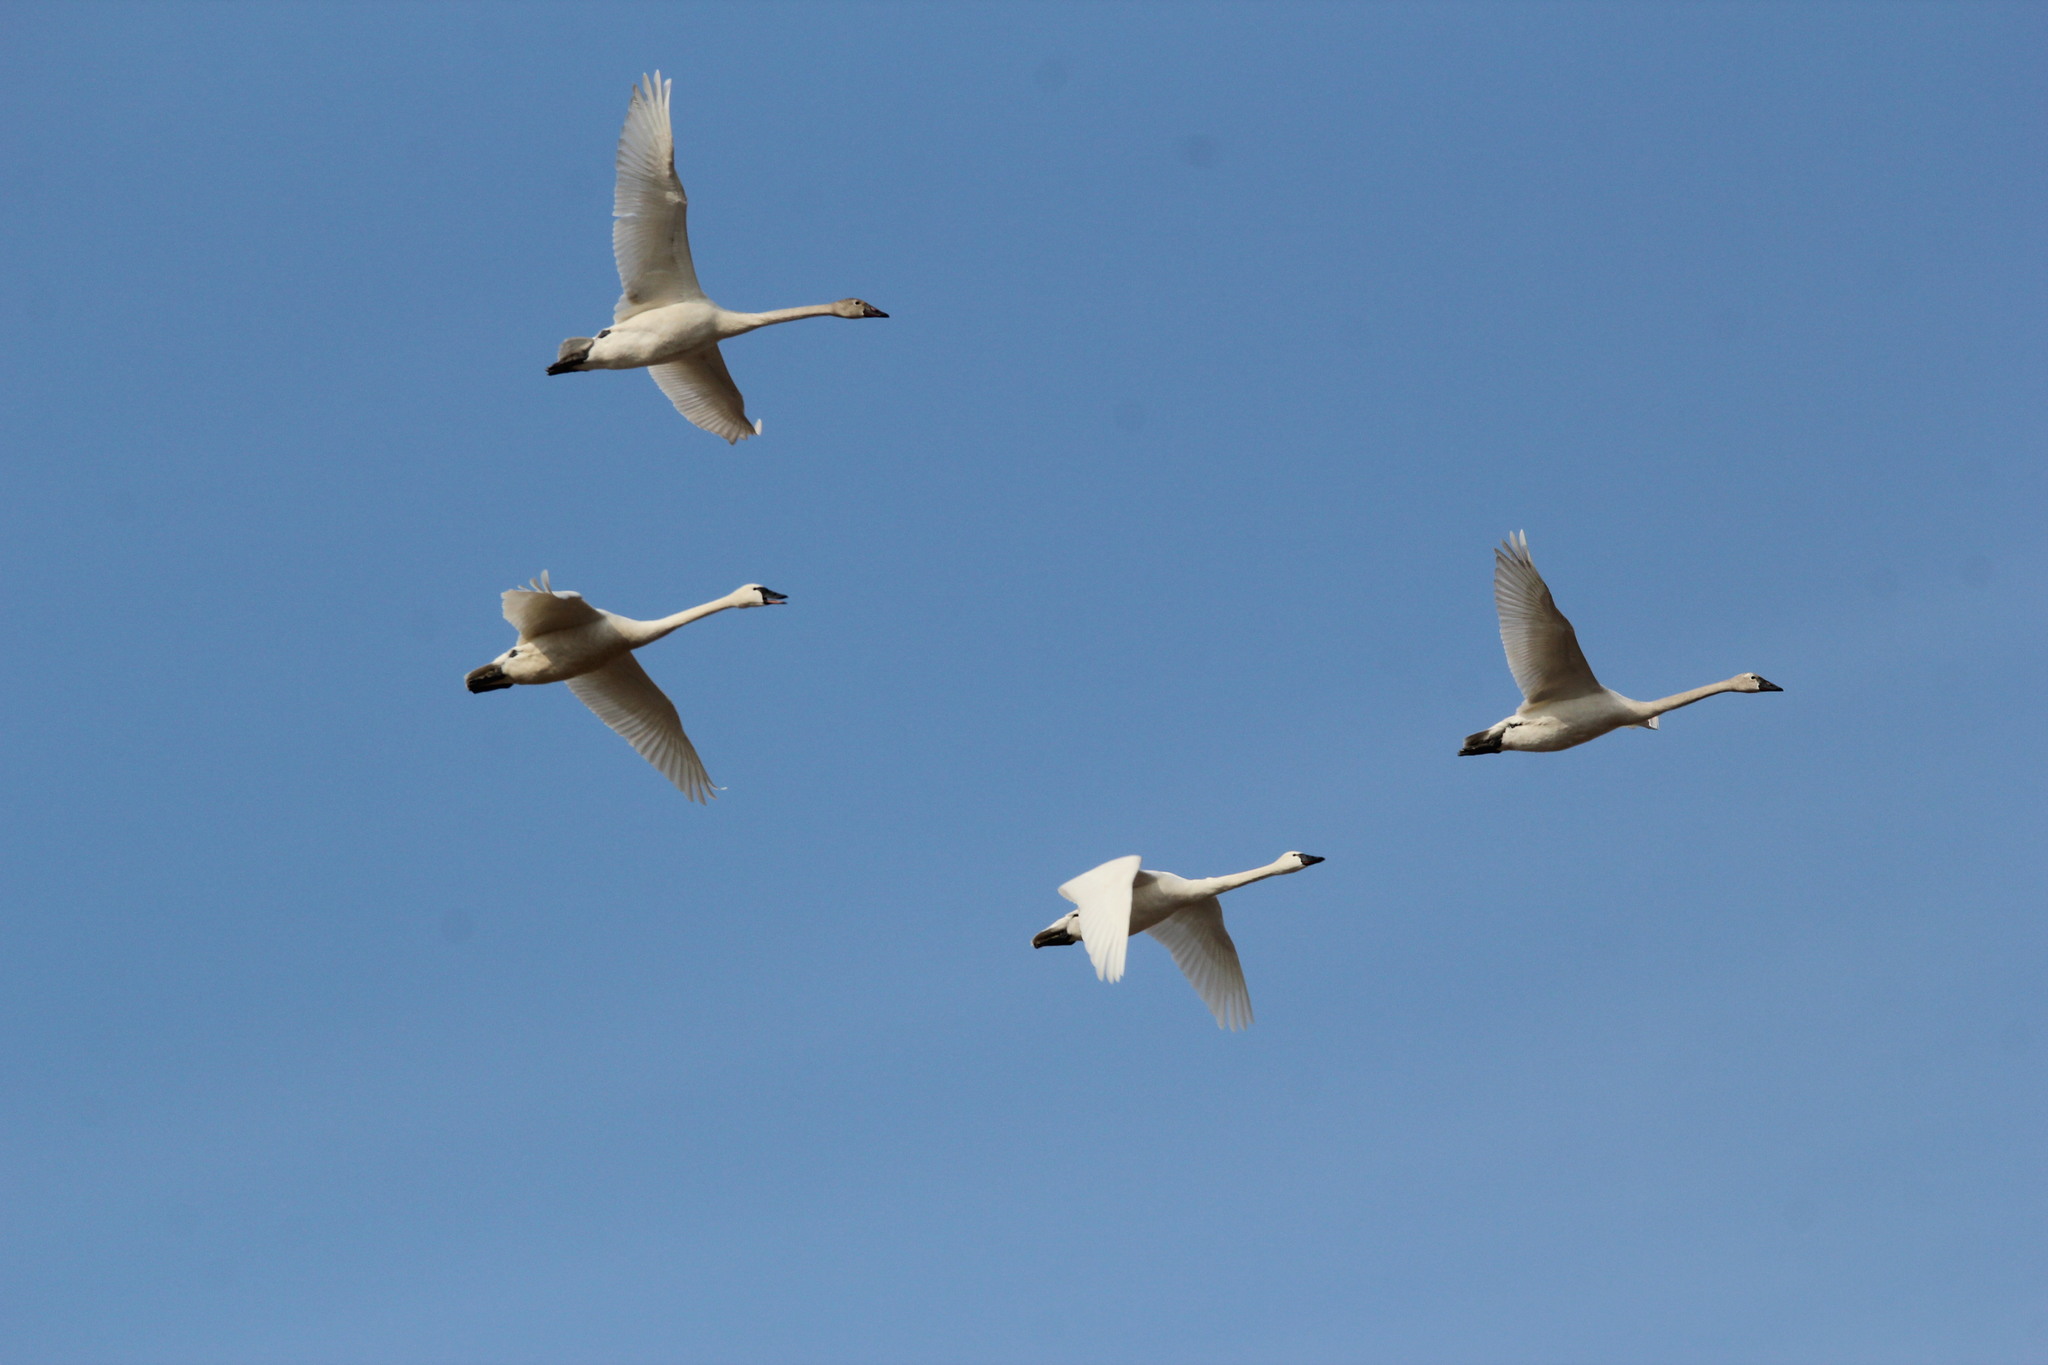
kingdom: Animalia
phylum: Chordata
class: Aves
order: Anseriformes
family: Anatidae
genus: Cygnus
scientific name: Cygnus columbianus
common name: Tundra swan
